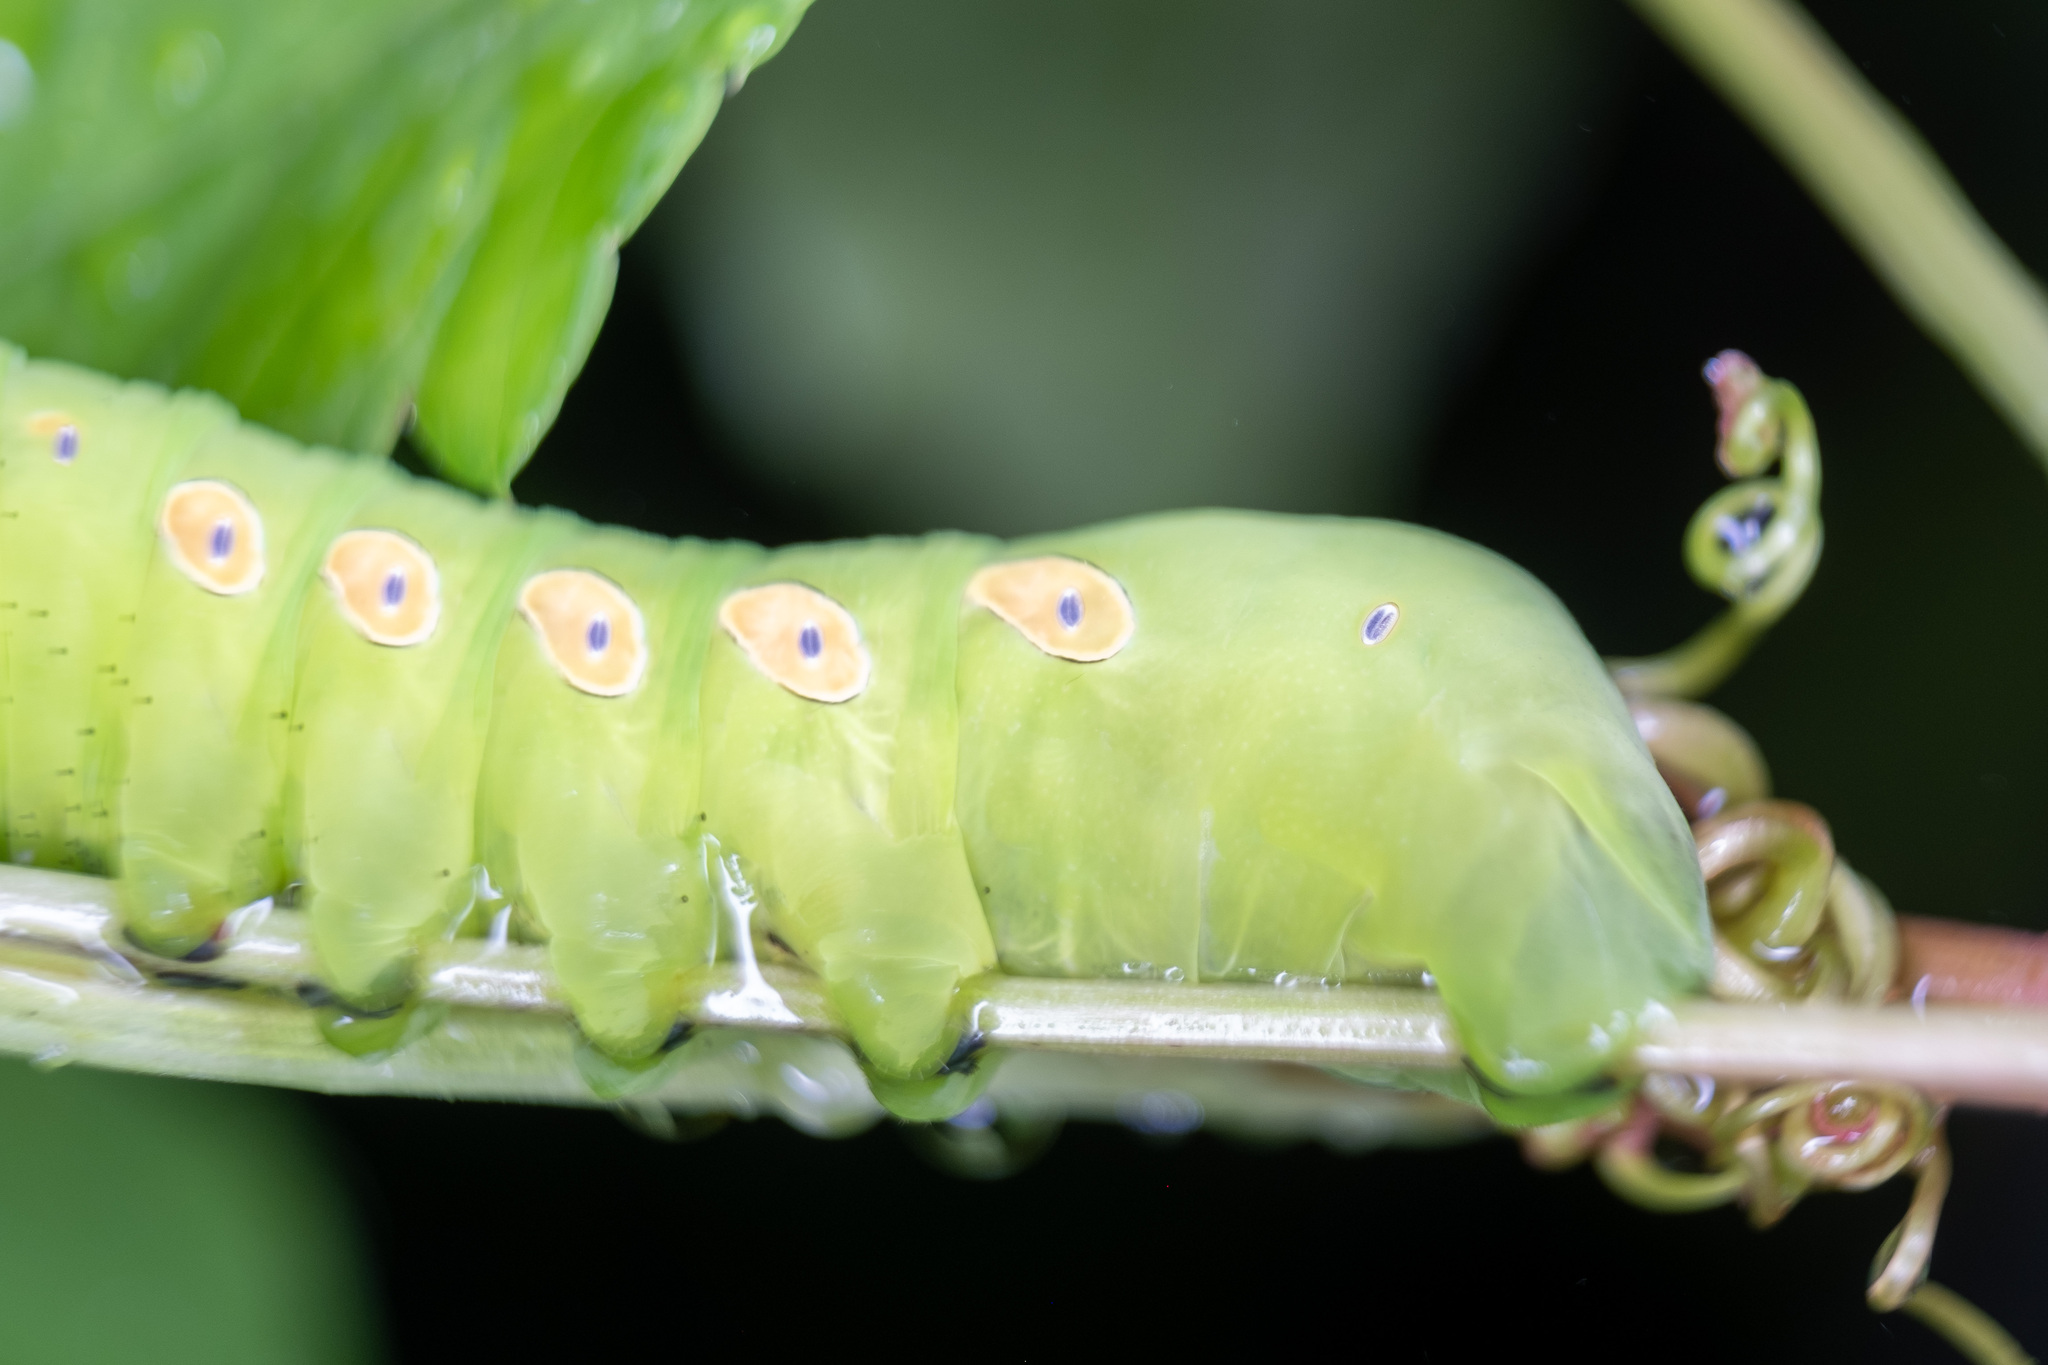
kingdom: Animalia
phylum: Arthropoda
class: Insecta
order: Lepidoptera
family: Sphingidae
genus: Eumorpha
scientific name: Eumorpha pandorus
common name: Pandora sphinx
